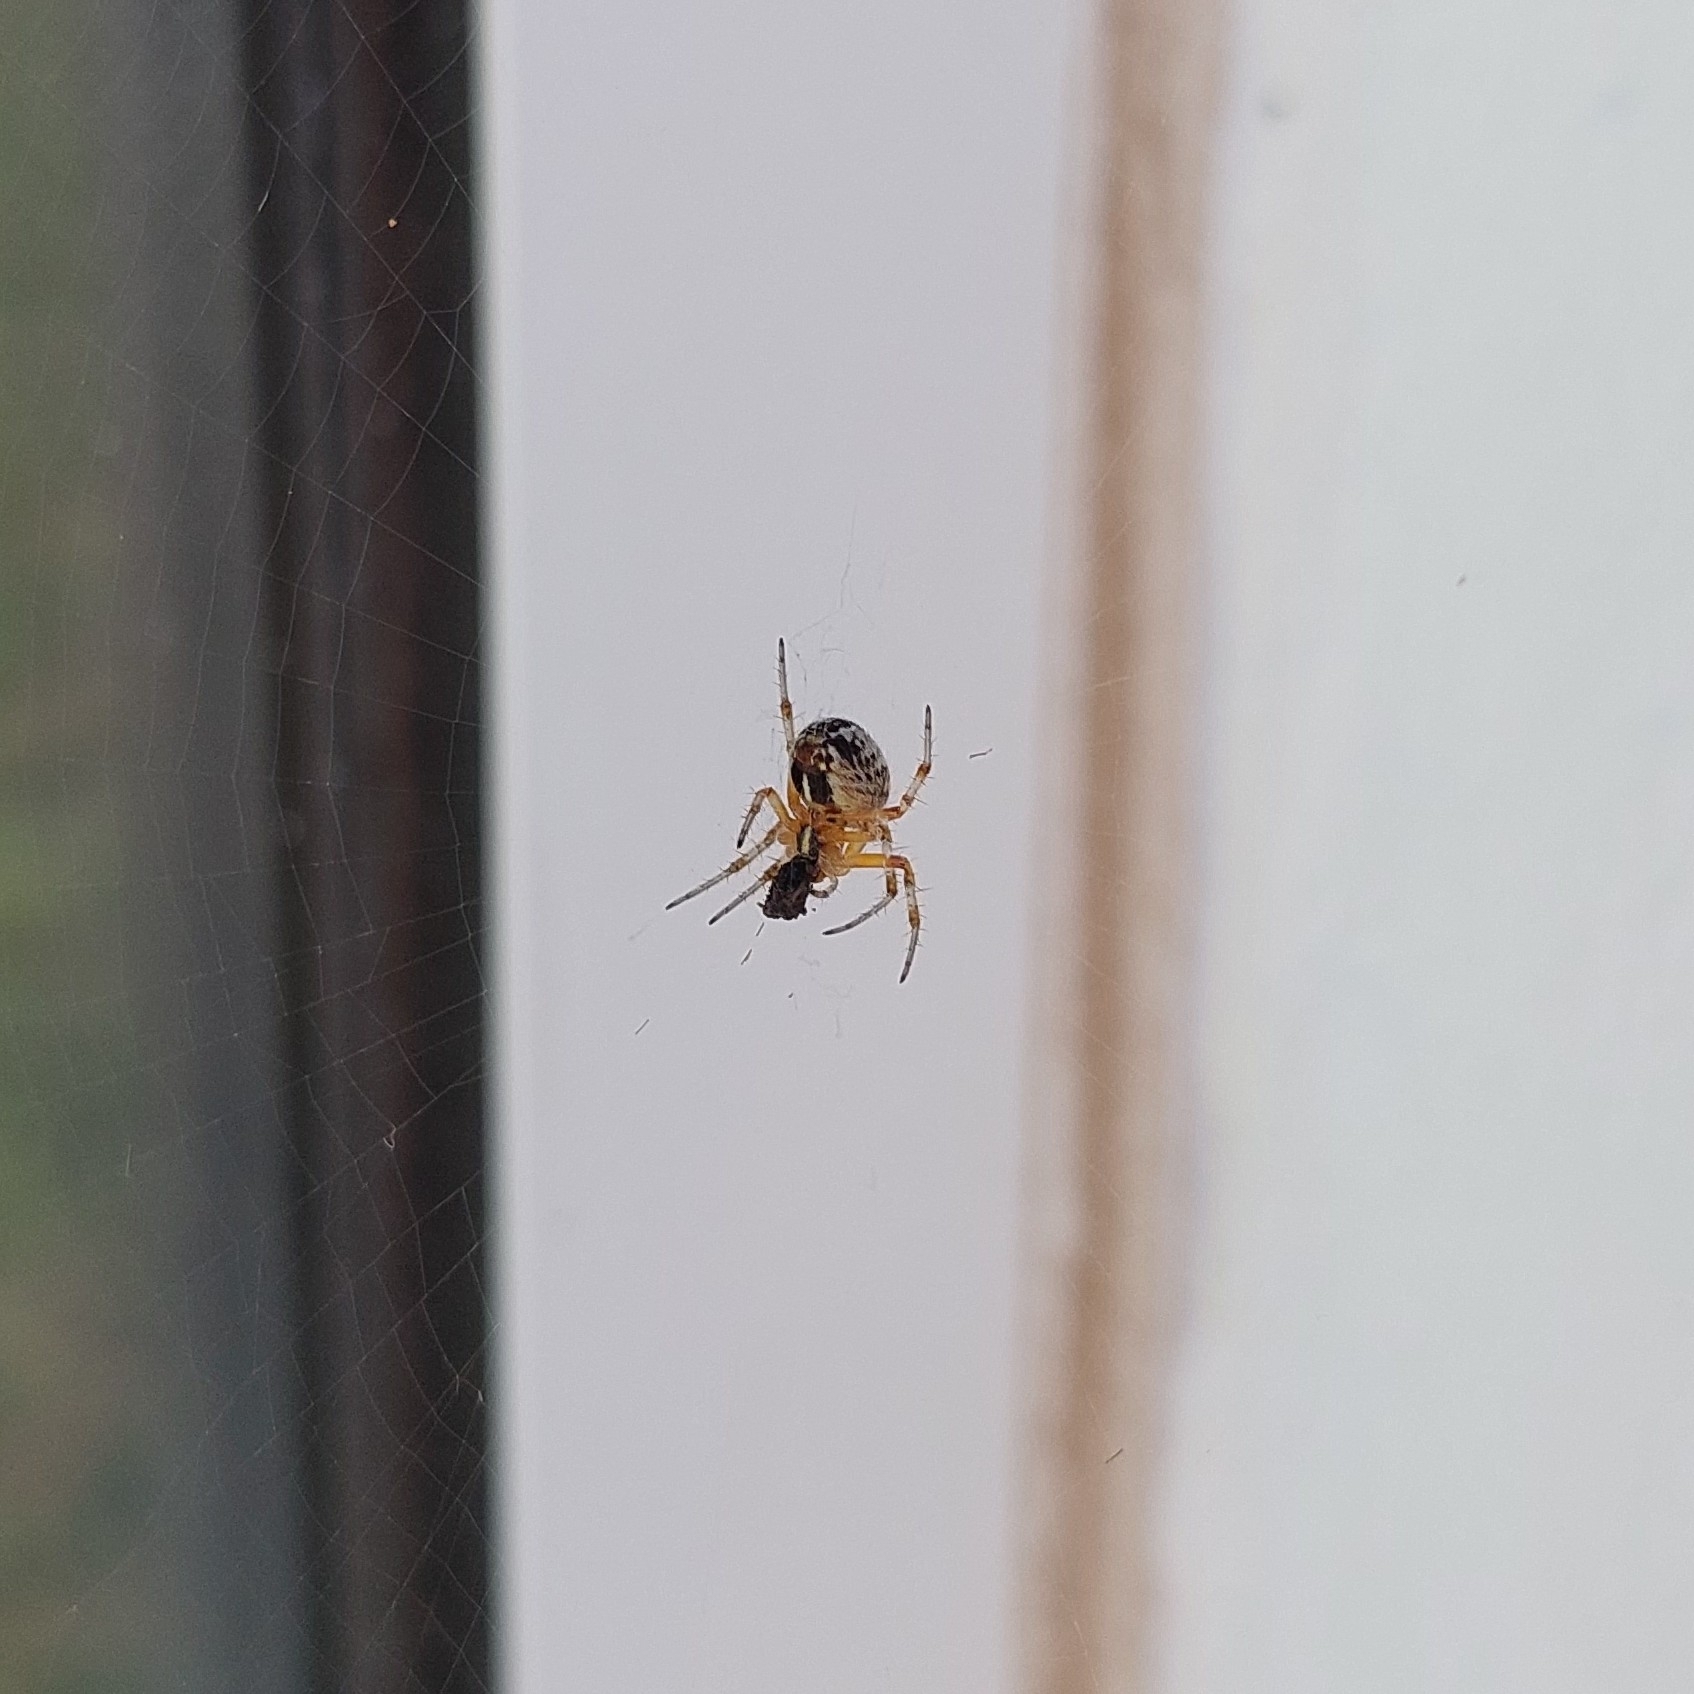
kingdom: Animalia
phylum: Arthropoda
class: Arachnida
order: Araneae
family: Araneidae
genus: Metepeira
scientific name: Metepeira
